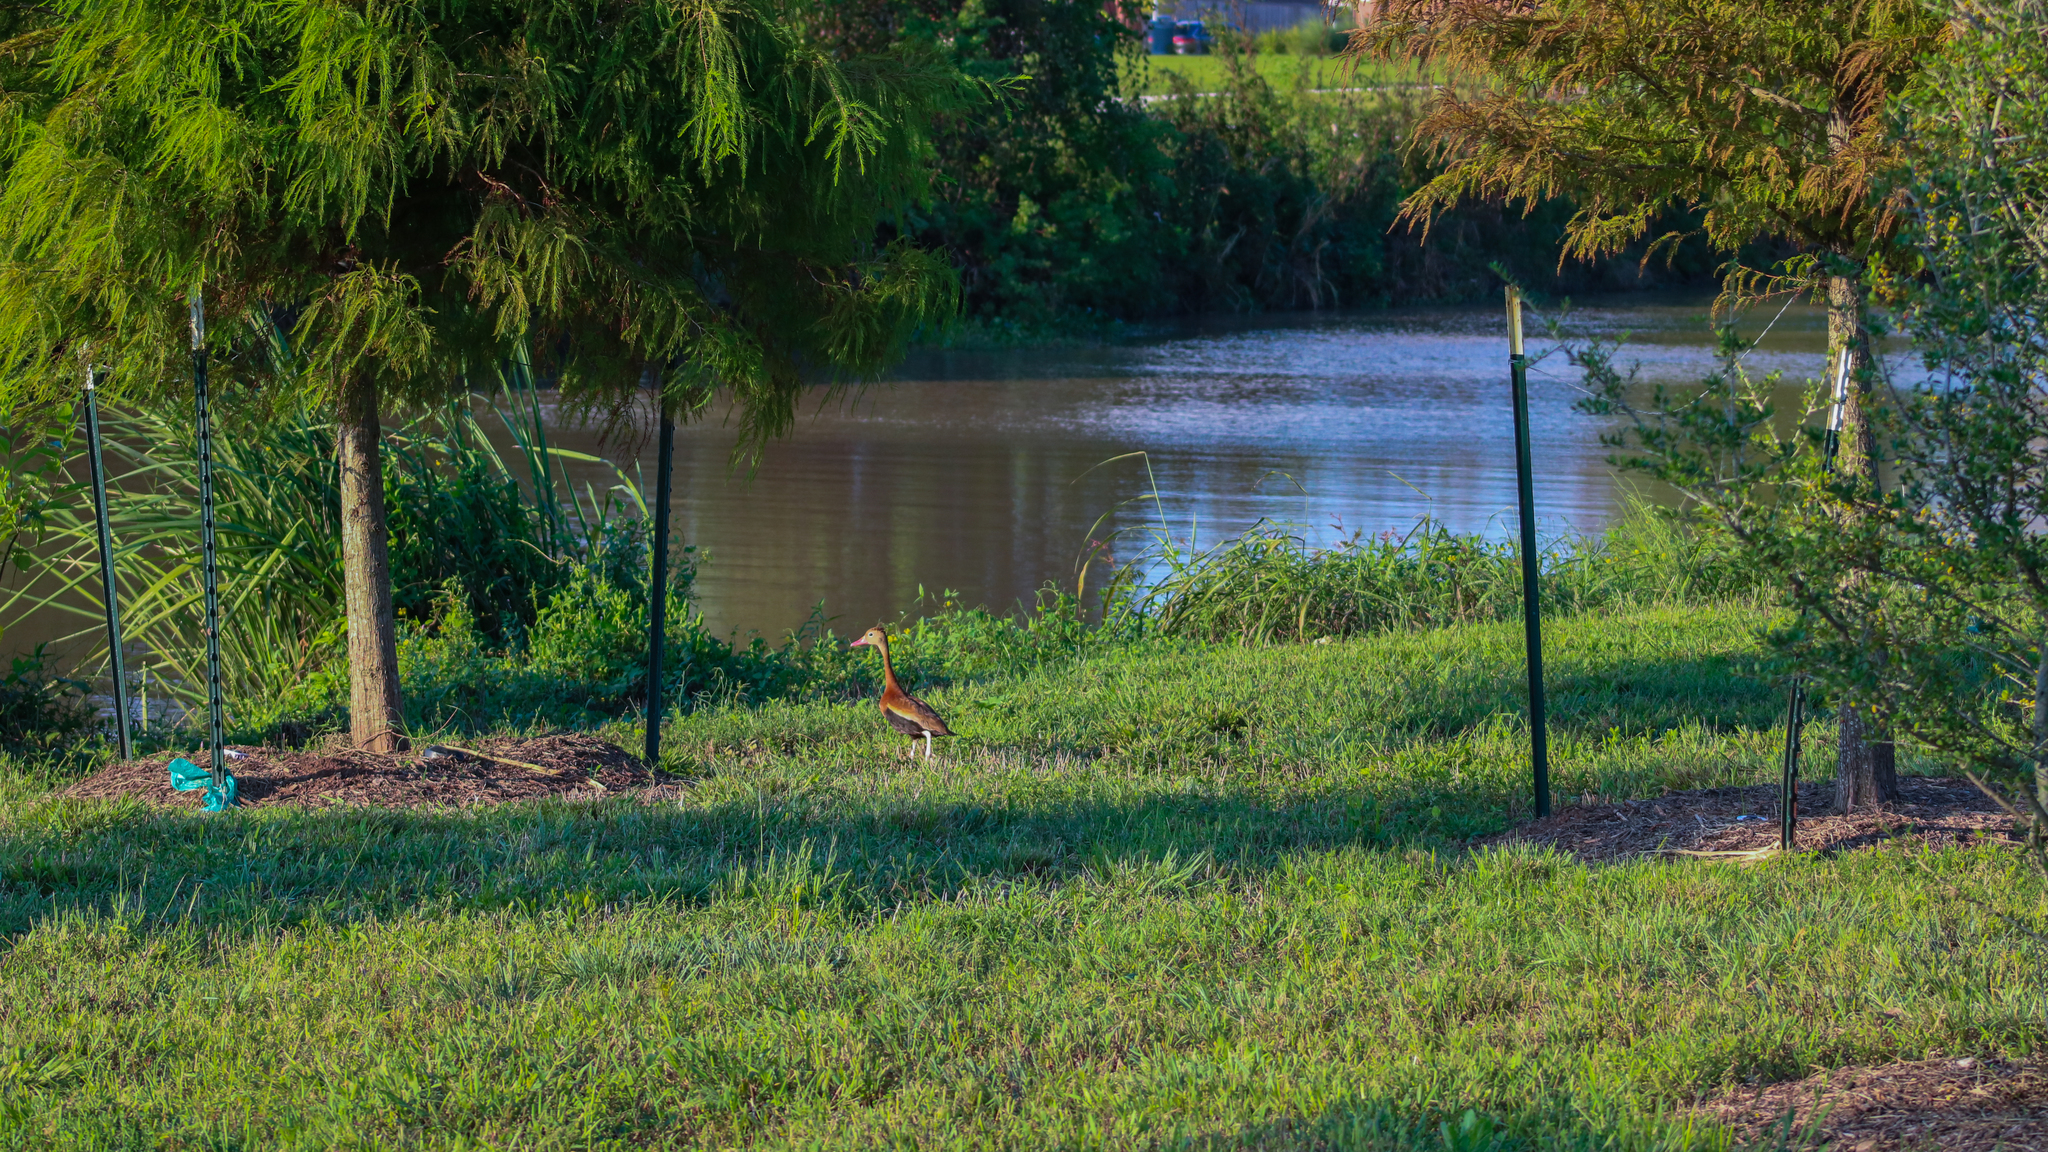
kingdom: Animalia
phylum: Chordata
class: Aves
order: Anseriformes
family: Anatidae
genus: Dendrocygna
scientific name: Dendrocygna autumnalis
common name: Black-bellied whistling duck
